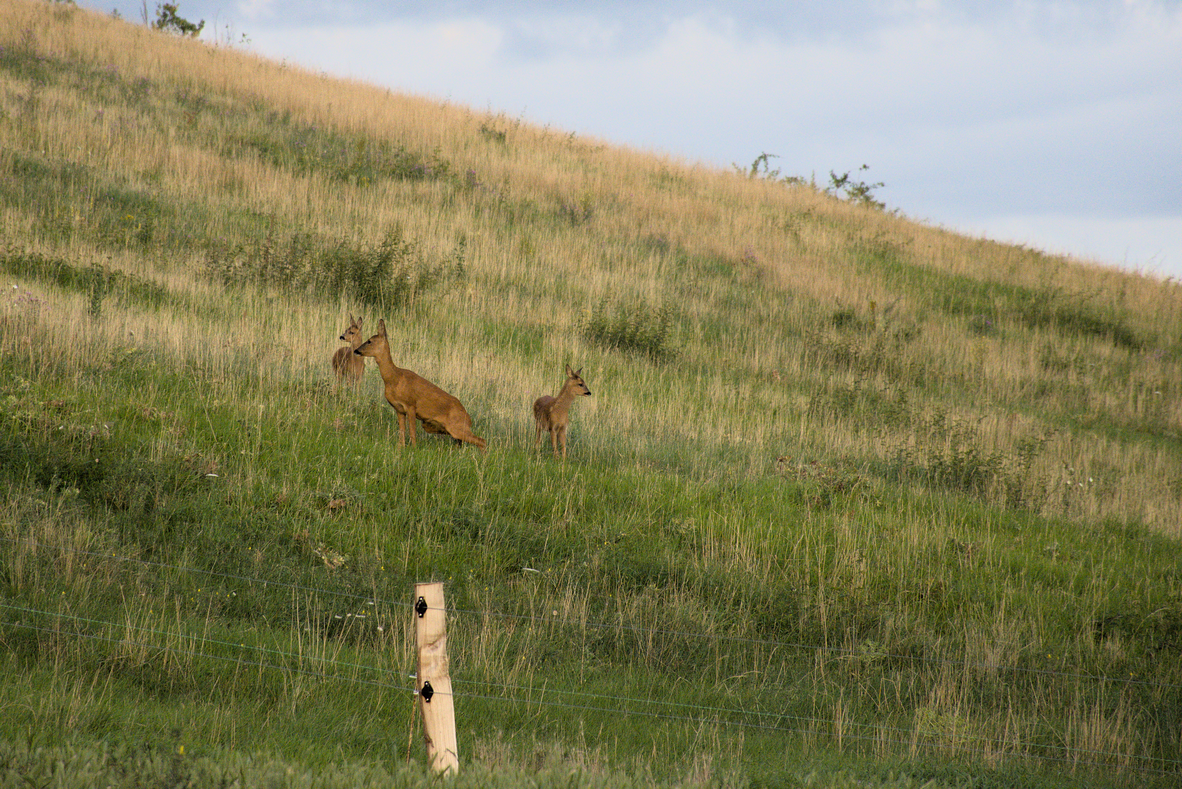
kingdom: Animalia
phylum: Chordata
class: Mammalia
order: Artiodactyla
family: Cervidae
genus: Capreolus
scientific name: Capreolus capreolus
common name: Western roe deer
